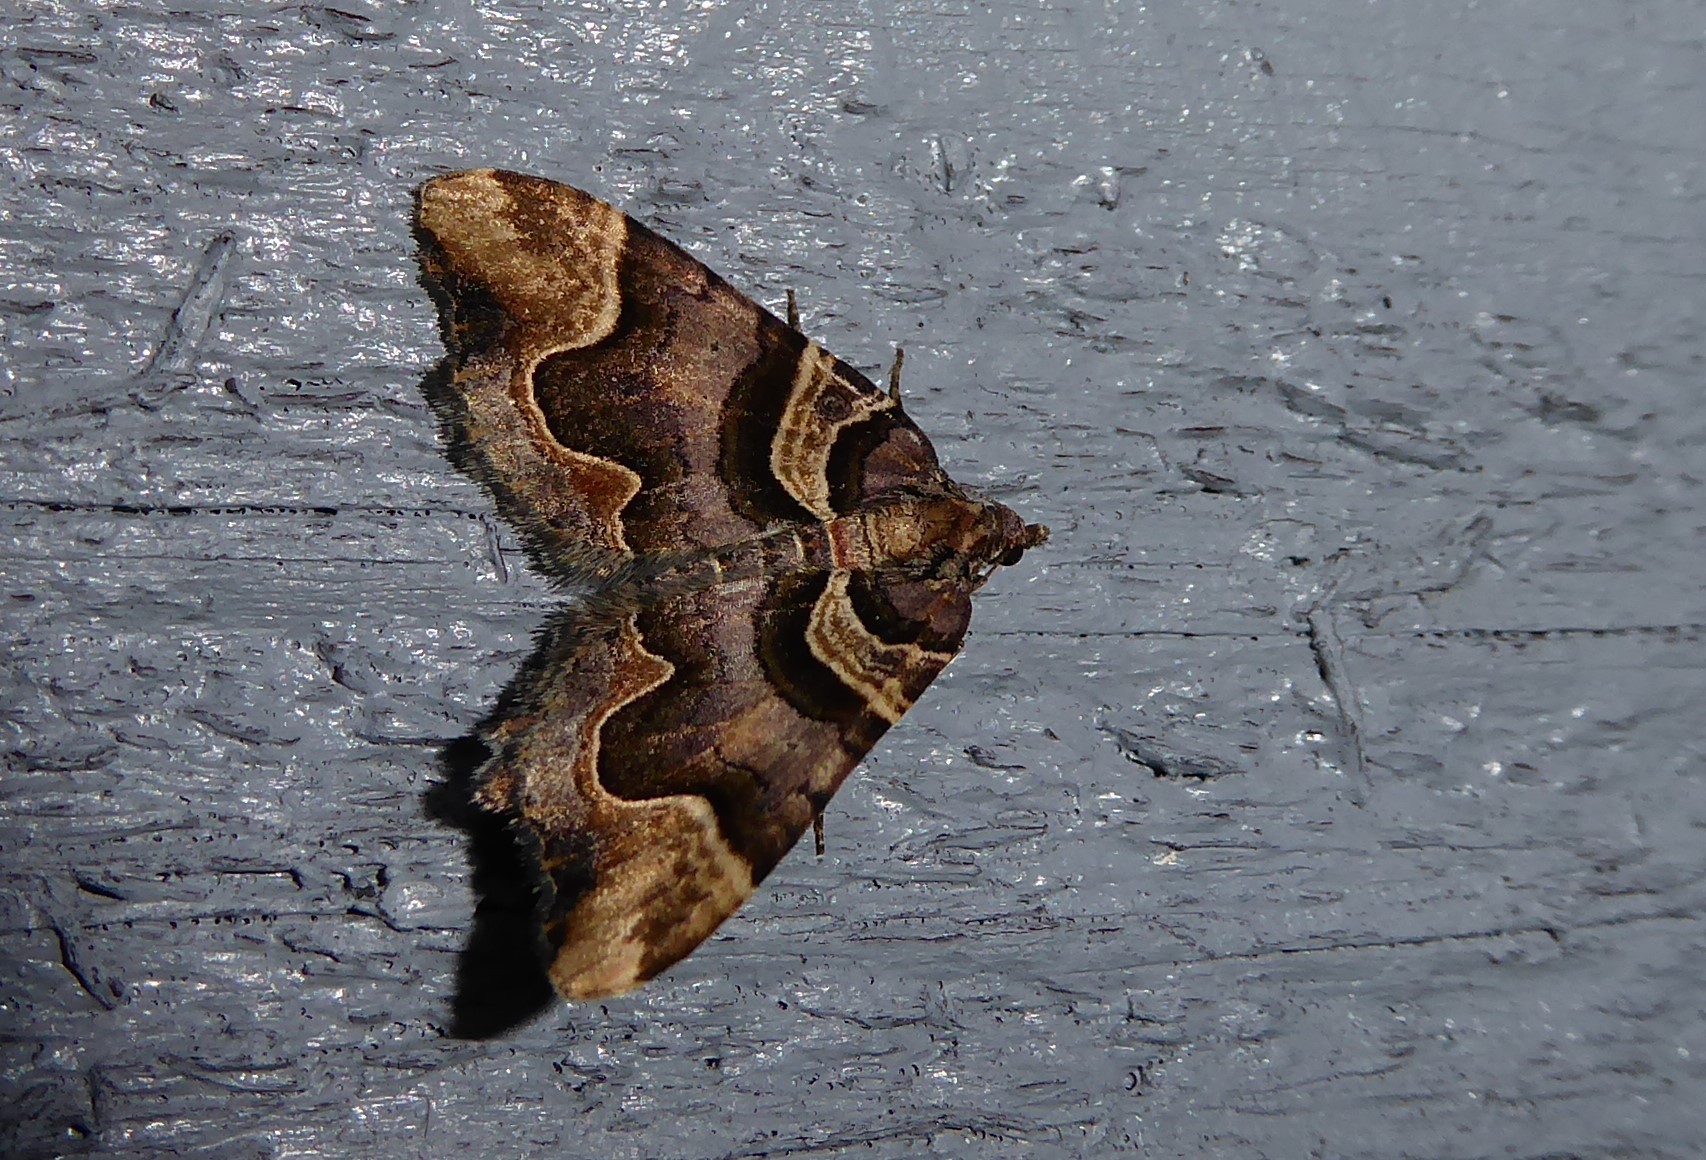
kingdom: Animalia
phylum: Arthropoda
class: Insecta
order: Lepidoptera
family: Geometridae
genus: Asaphodes
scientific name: Asaphodes chlamydota
